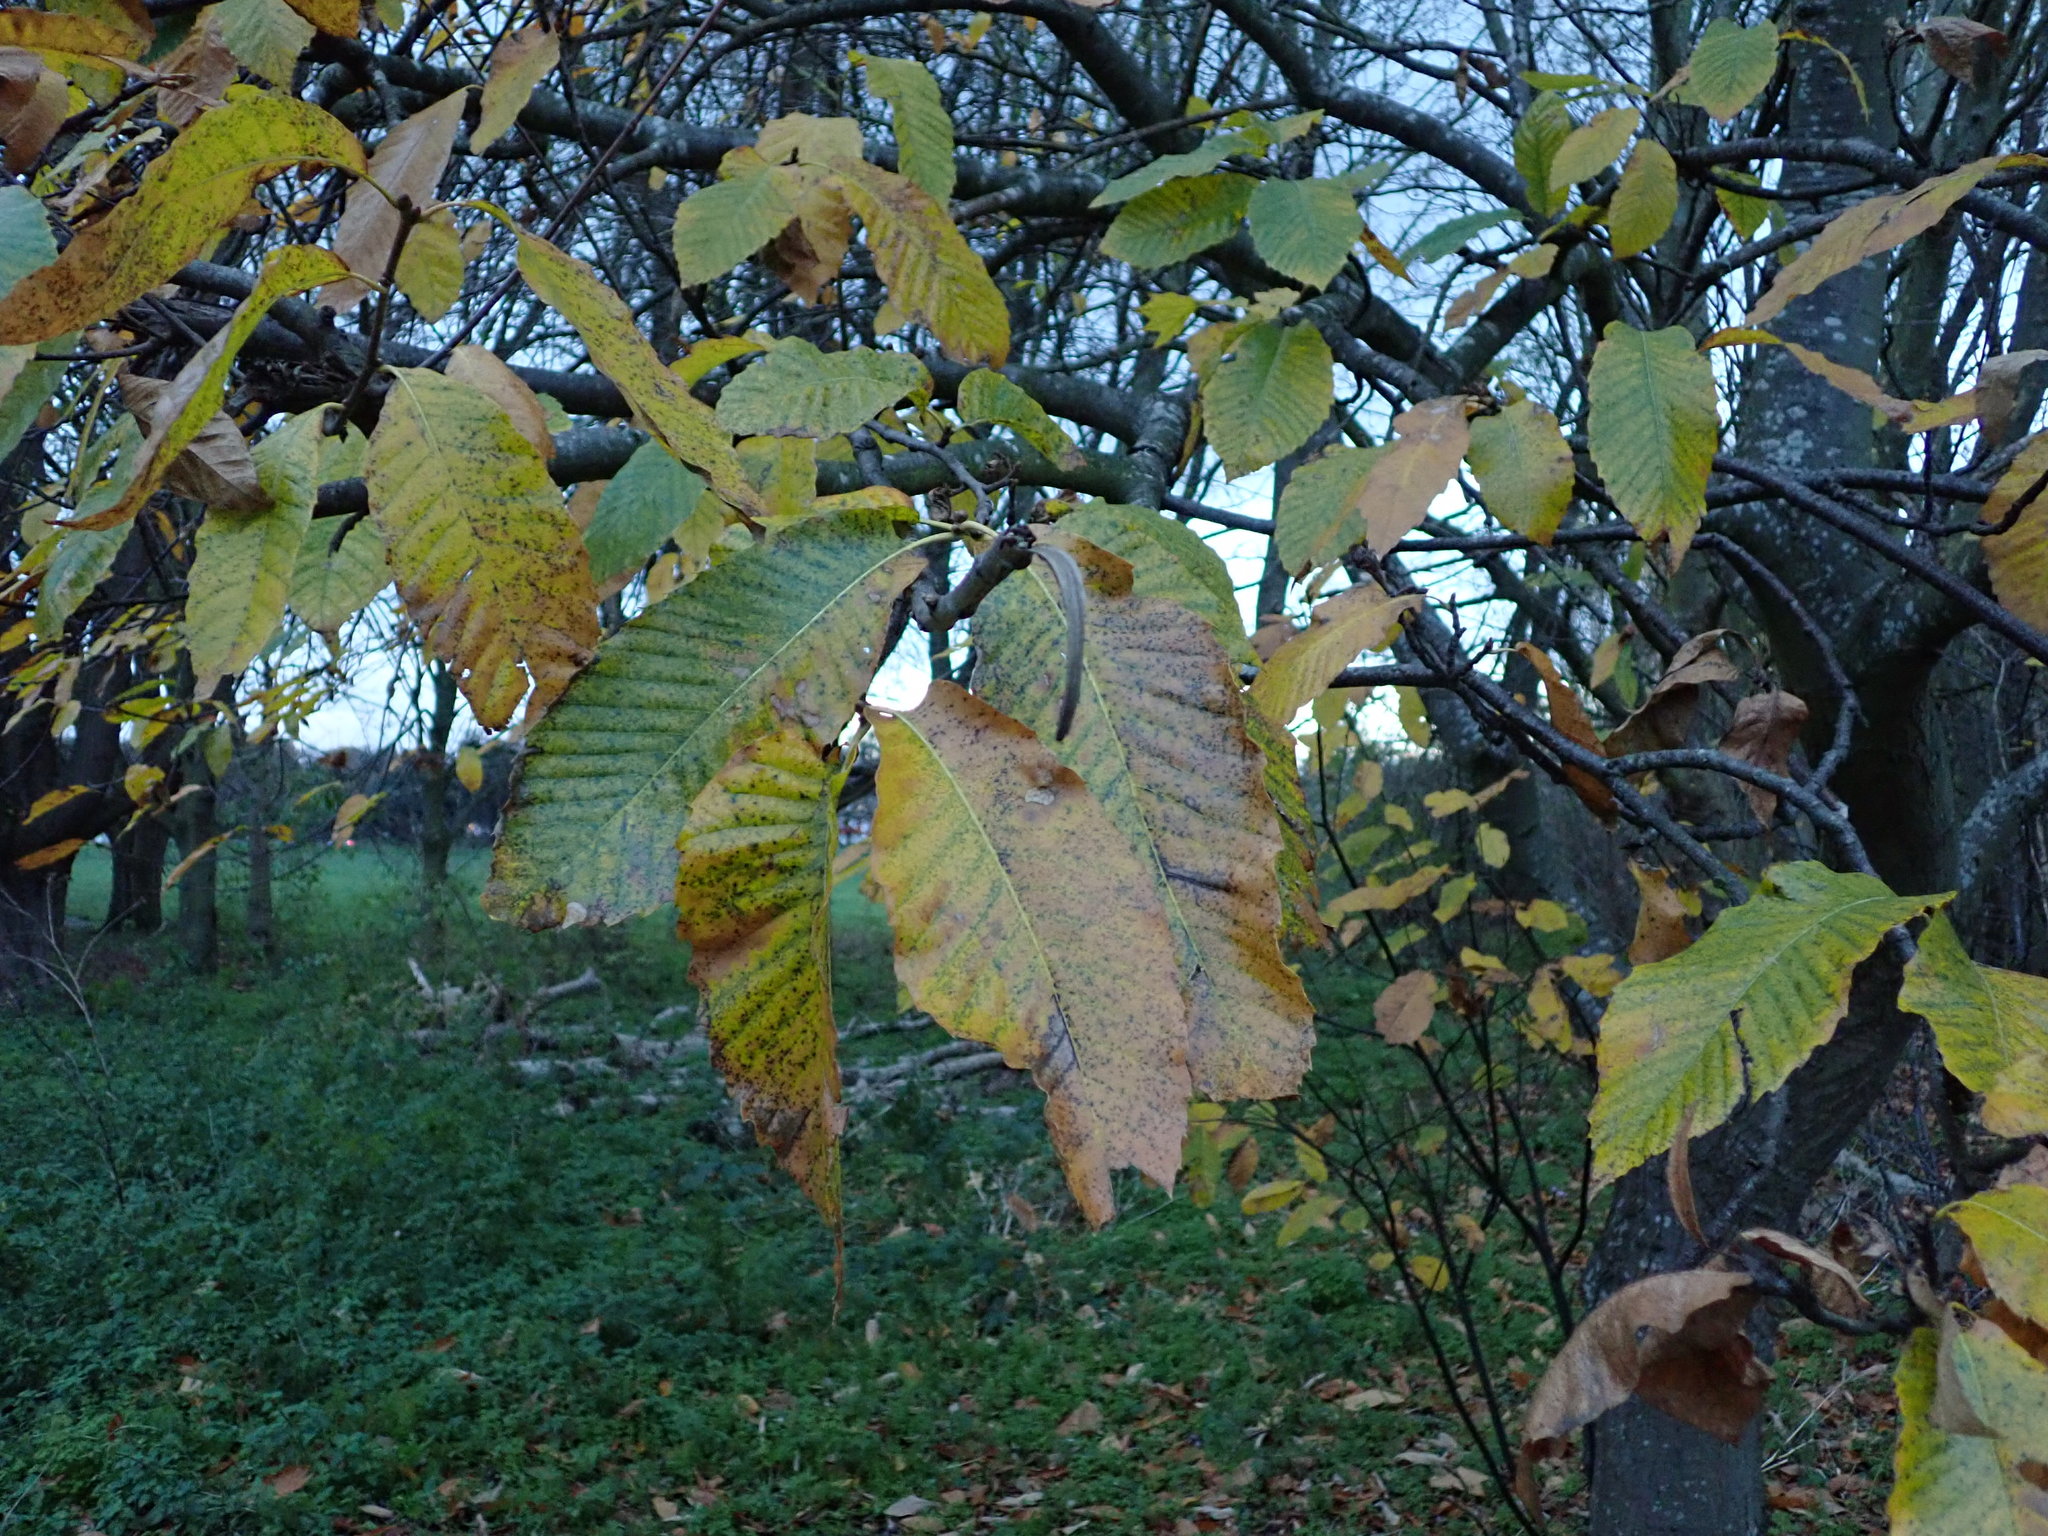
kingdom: Plantae
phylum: Tracheophyta
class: Magnoliopsida
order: Fagales
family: Fagaceae
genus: Castanea
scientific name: Castanea sativa
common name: Sweet chestnut
